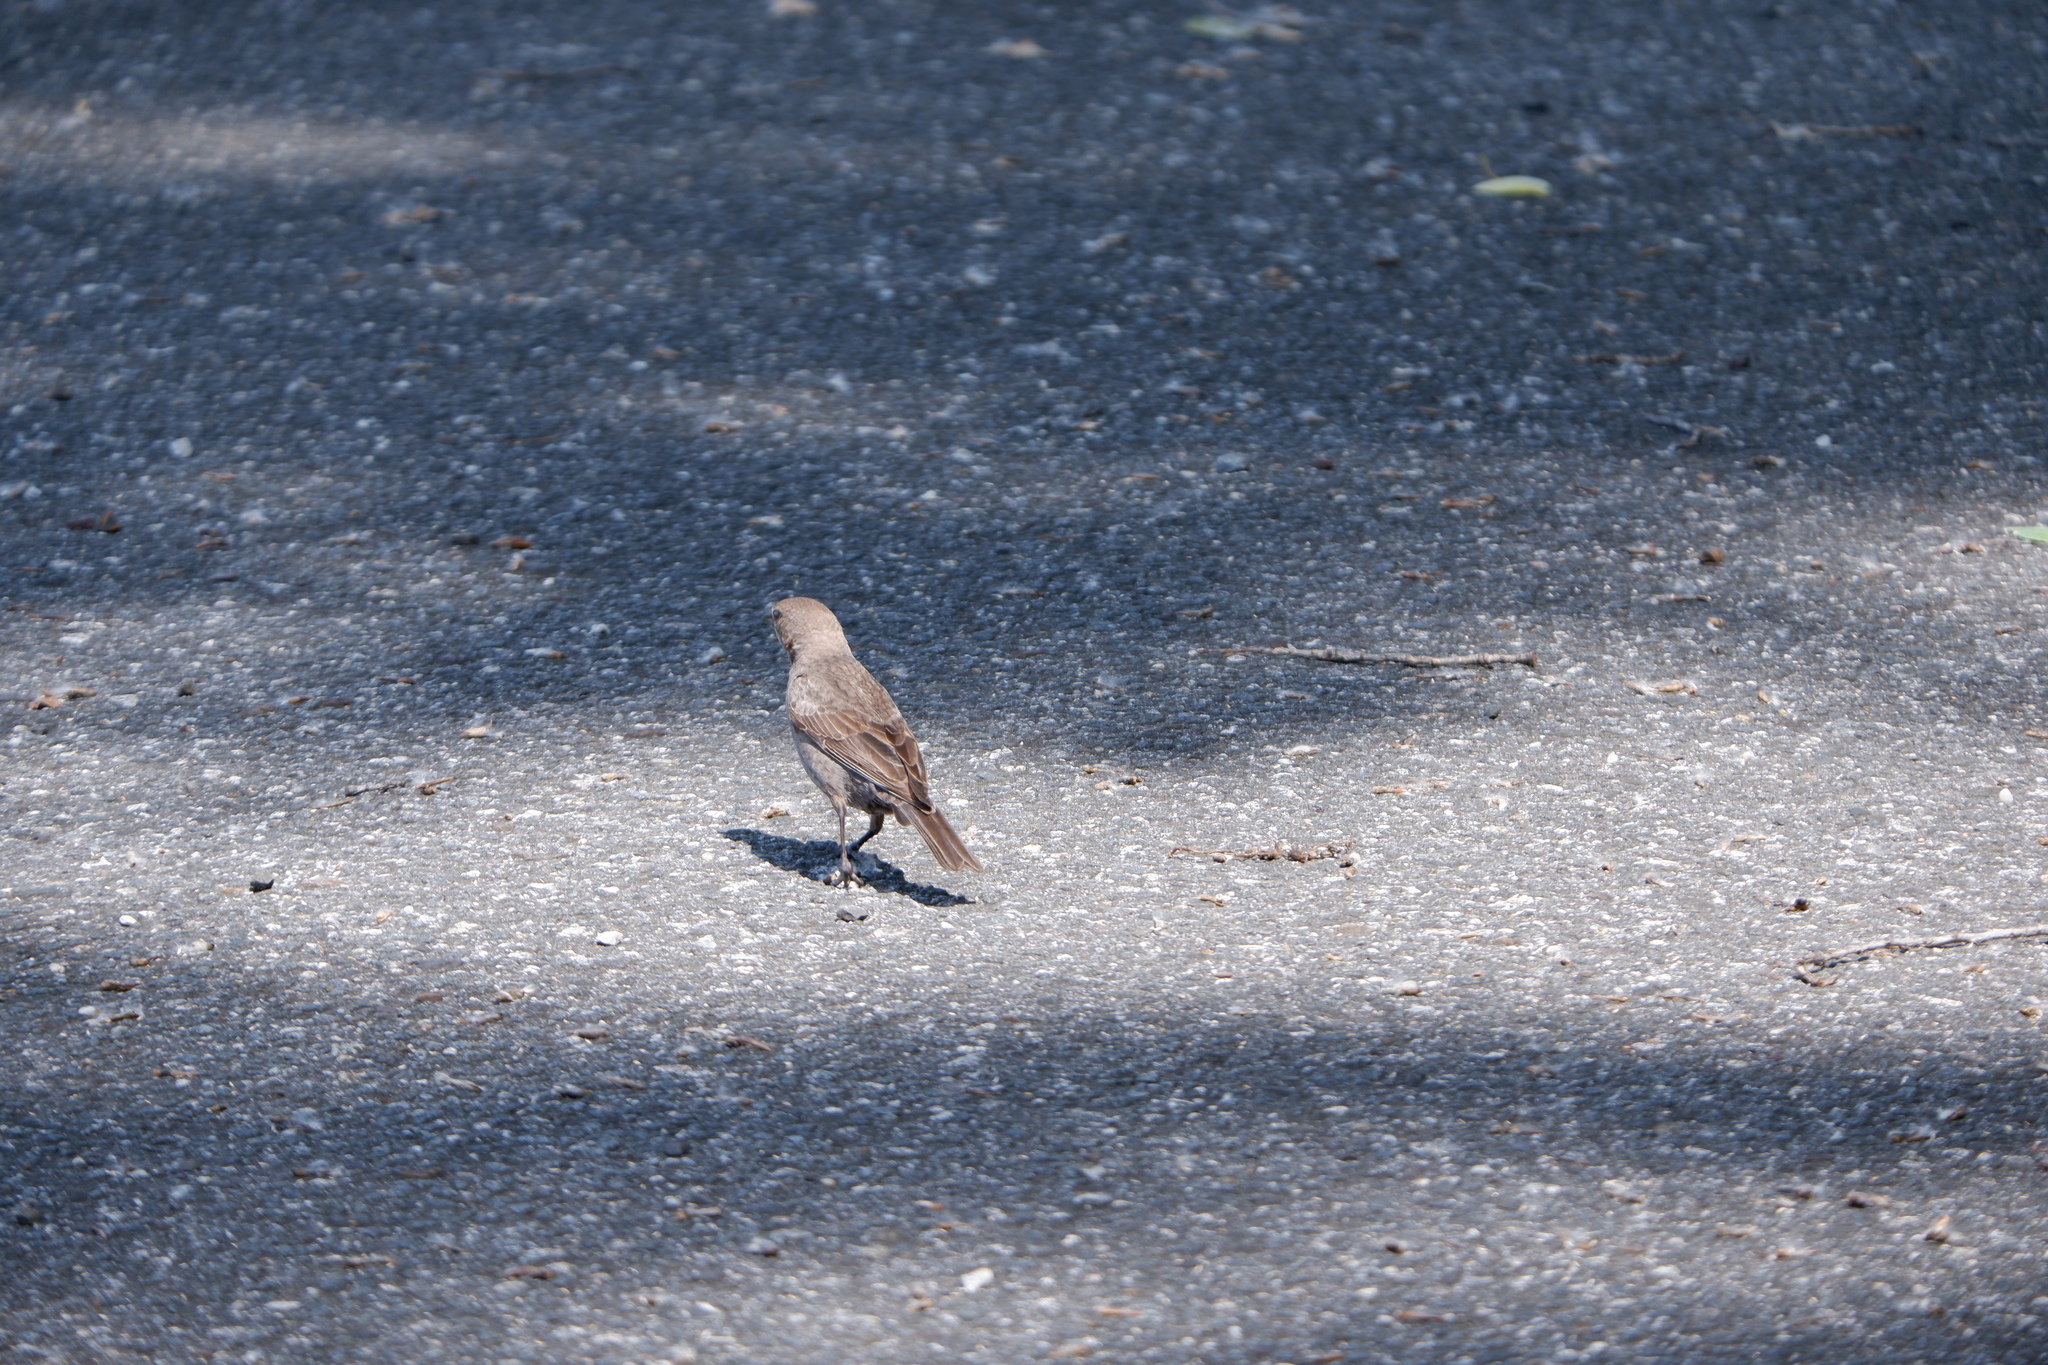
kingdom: Animalia
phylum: Chordata
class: Aves
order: Passeriformes
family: Icteridae
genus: Molothrus
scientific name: Molothrus ater
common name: Brown-headed cowbird
